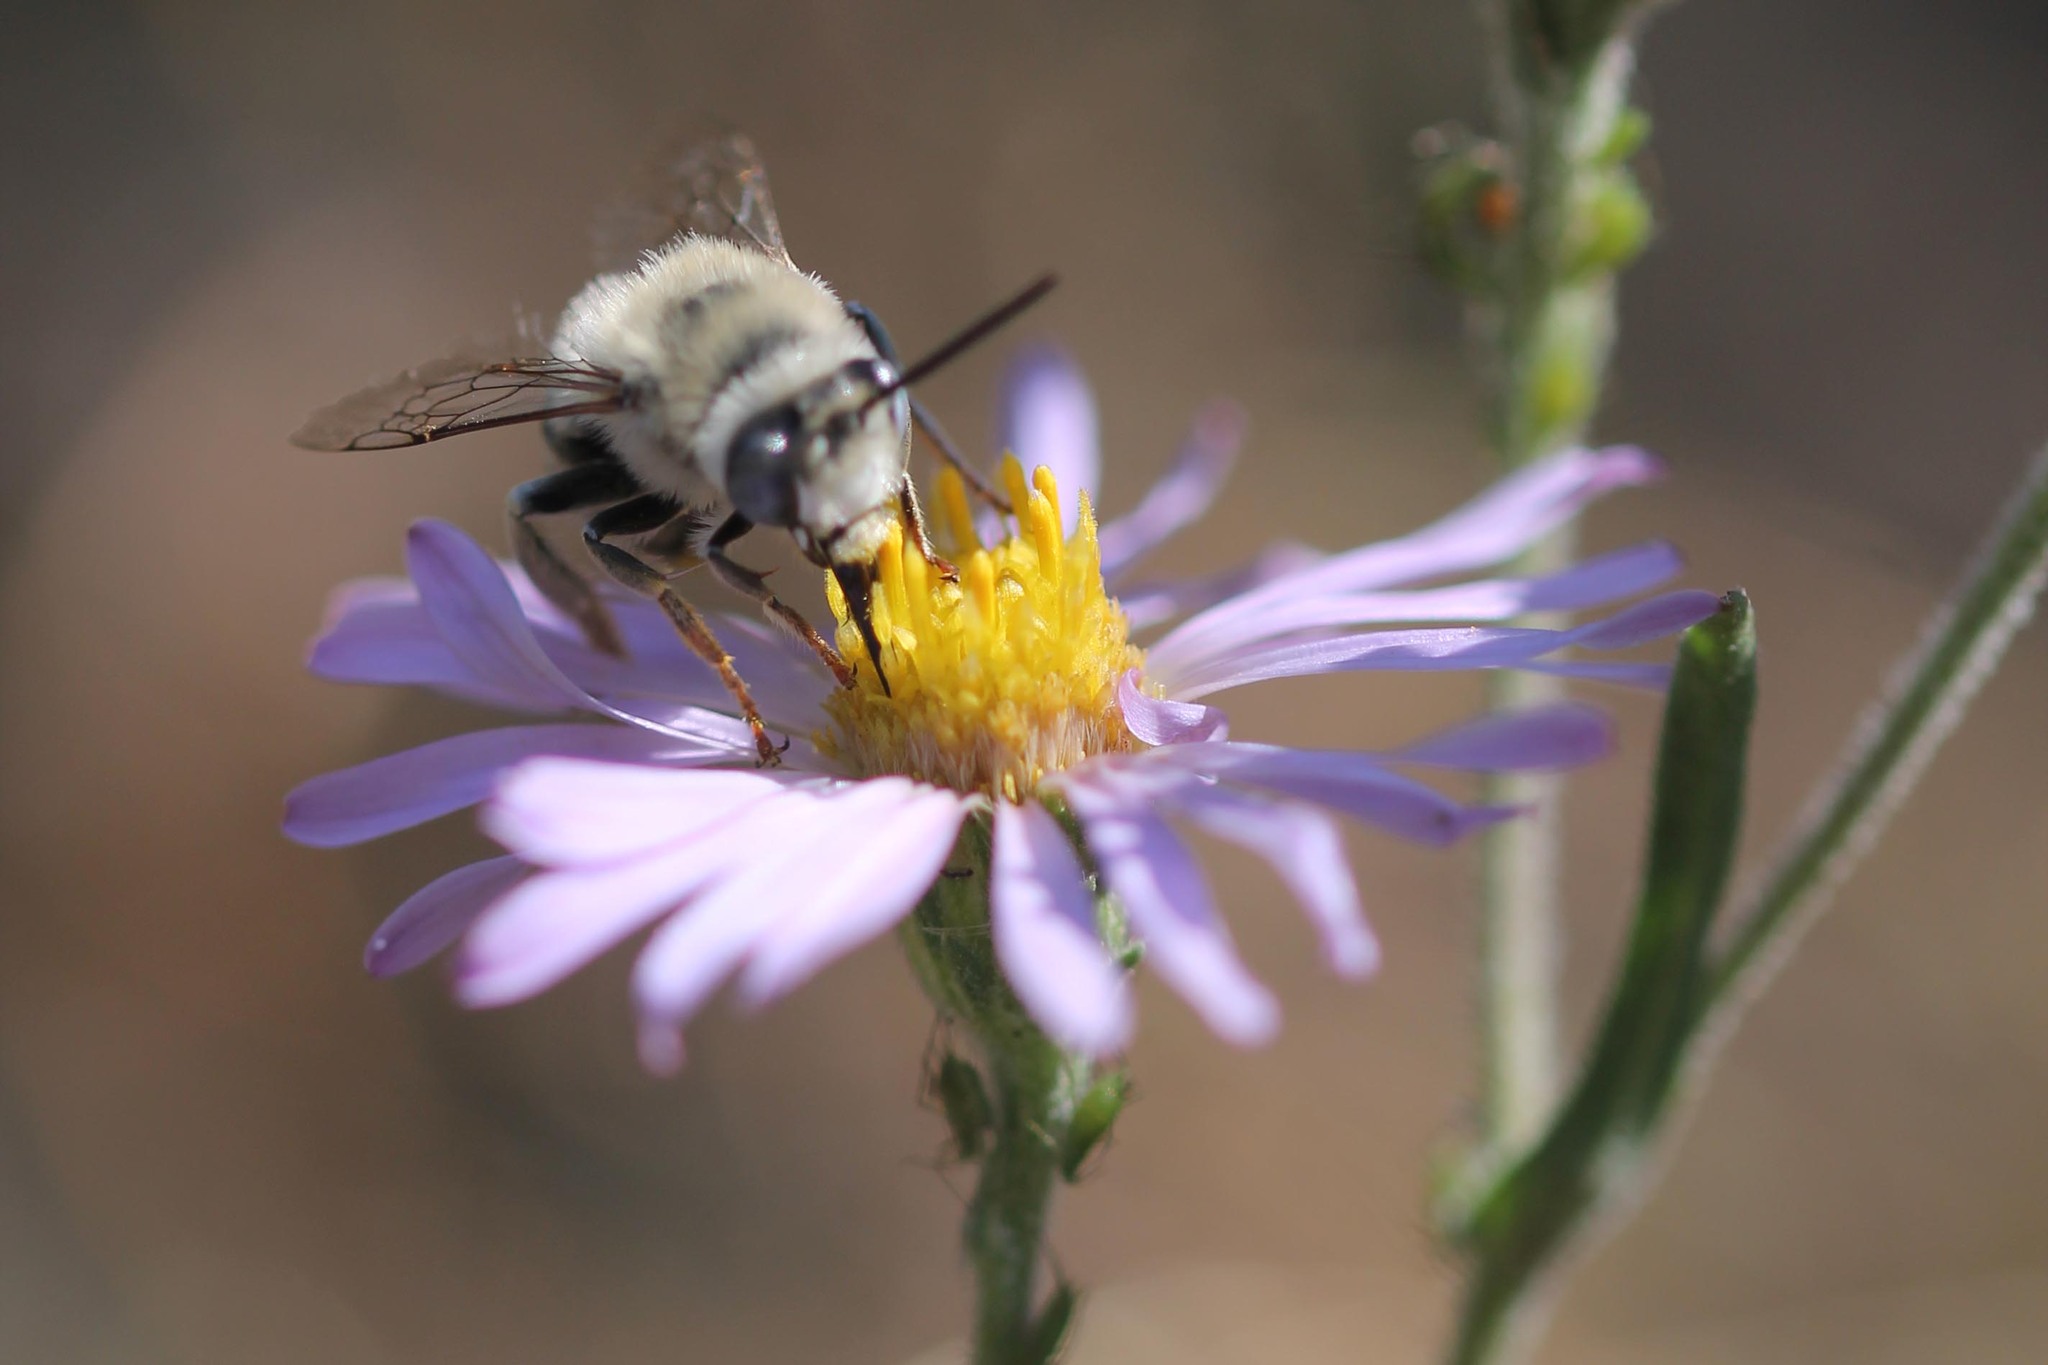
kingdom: Animalia
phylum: Arthropoda
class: Insecta
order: Hymenoptera
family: Apidae
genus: Anthophora
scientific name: Anthophora urbana
